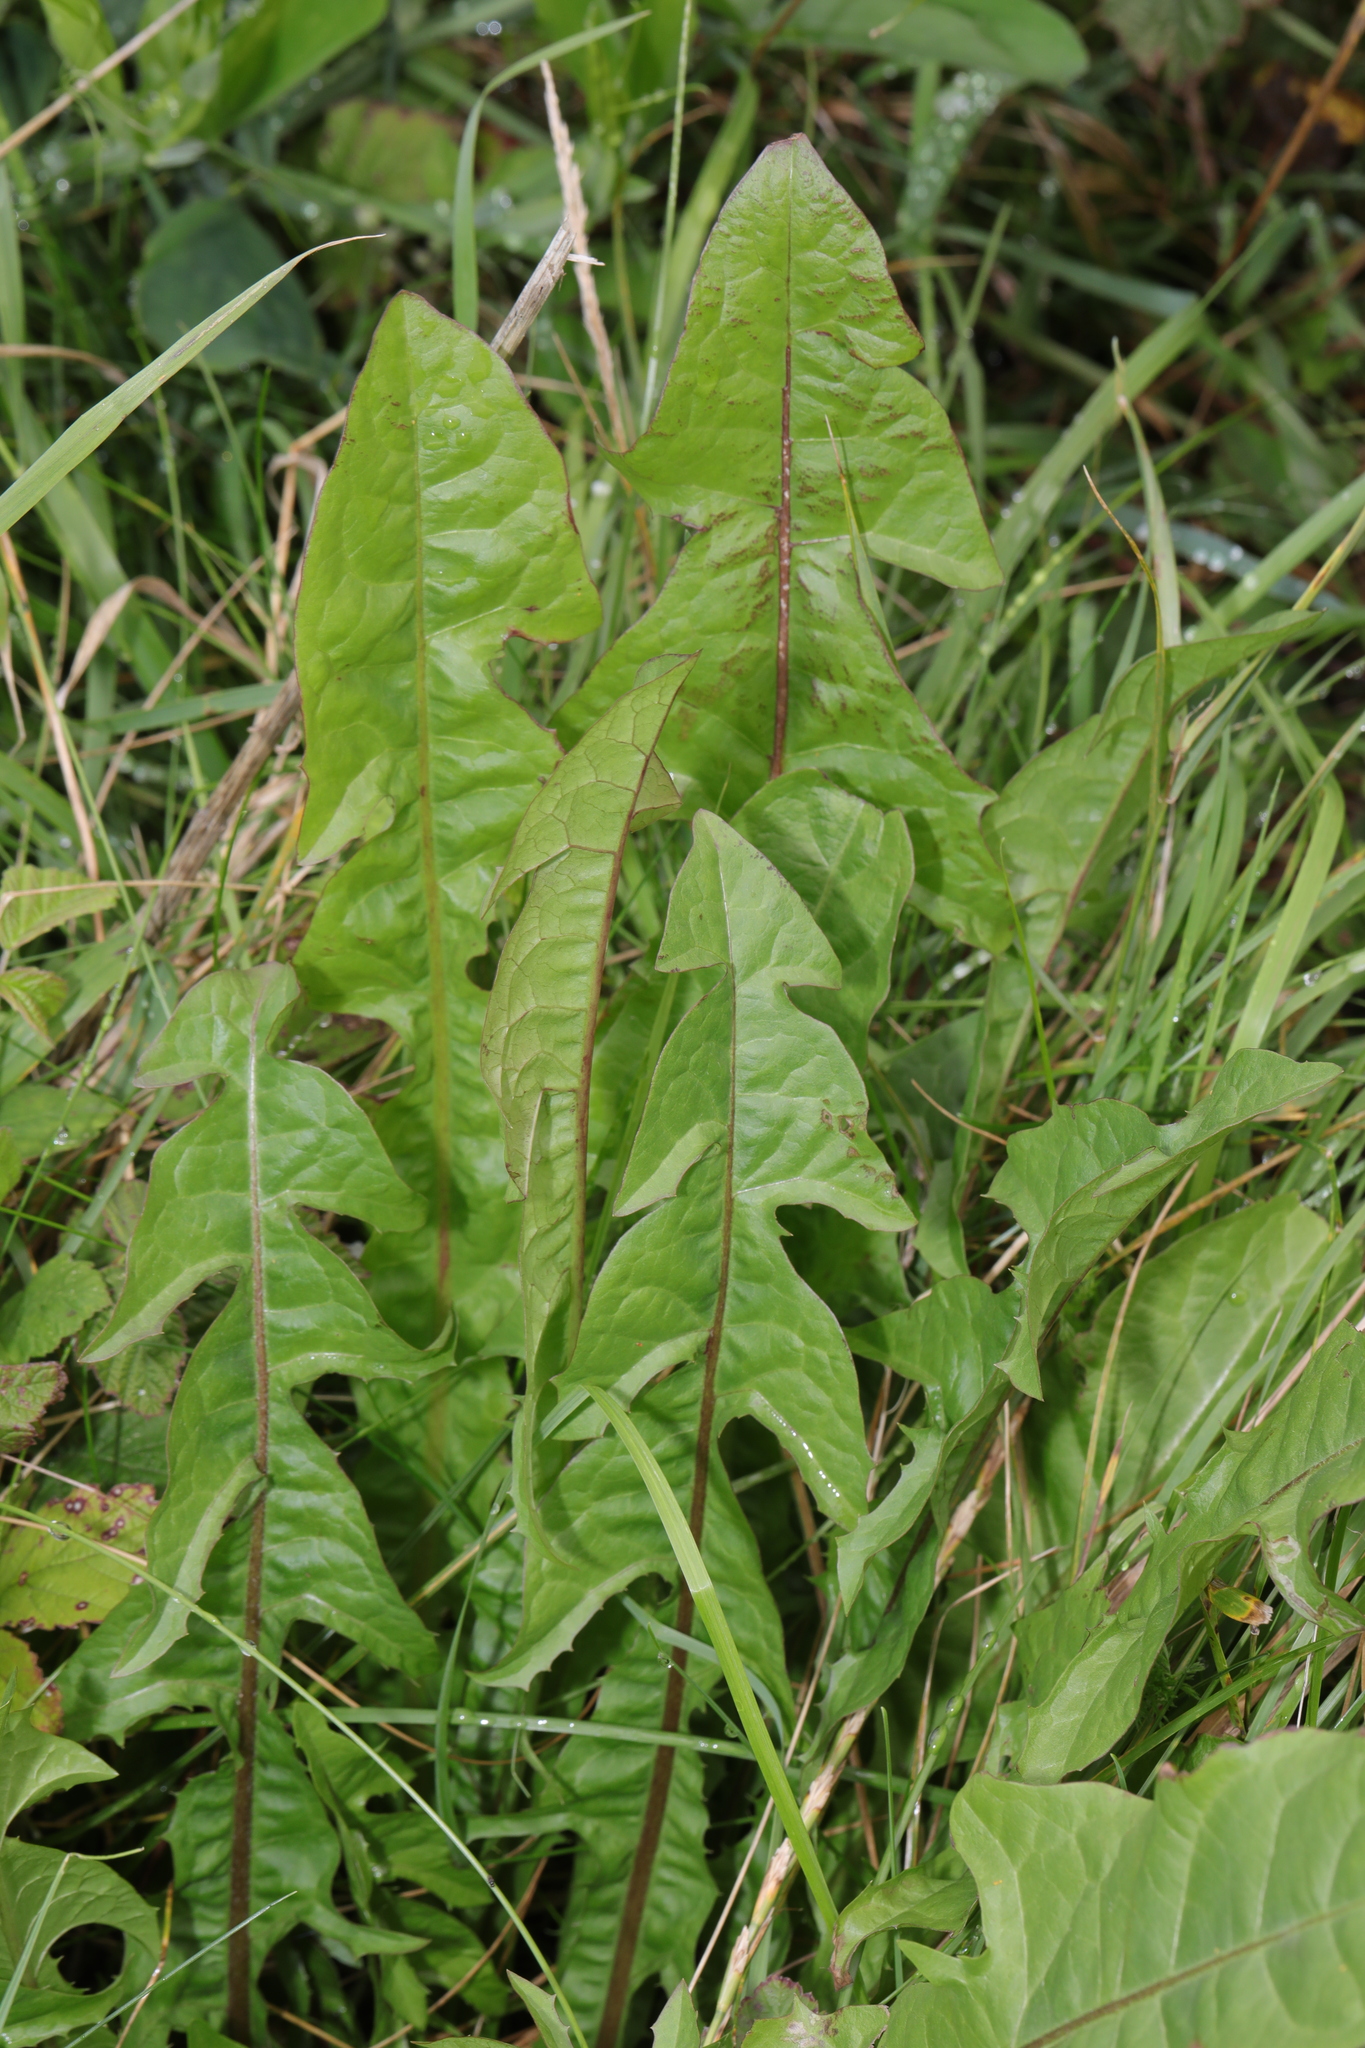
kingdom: Plantae
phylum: Tracheophyta
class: Magnoliopsida
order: Asterales
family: Asteraceae
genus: Taraxacum
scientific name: Taraxacum officinale
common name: Common dandelion
